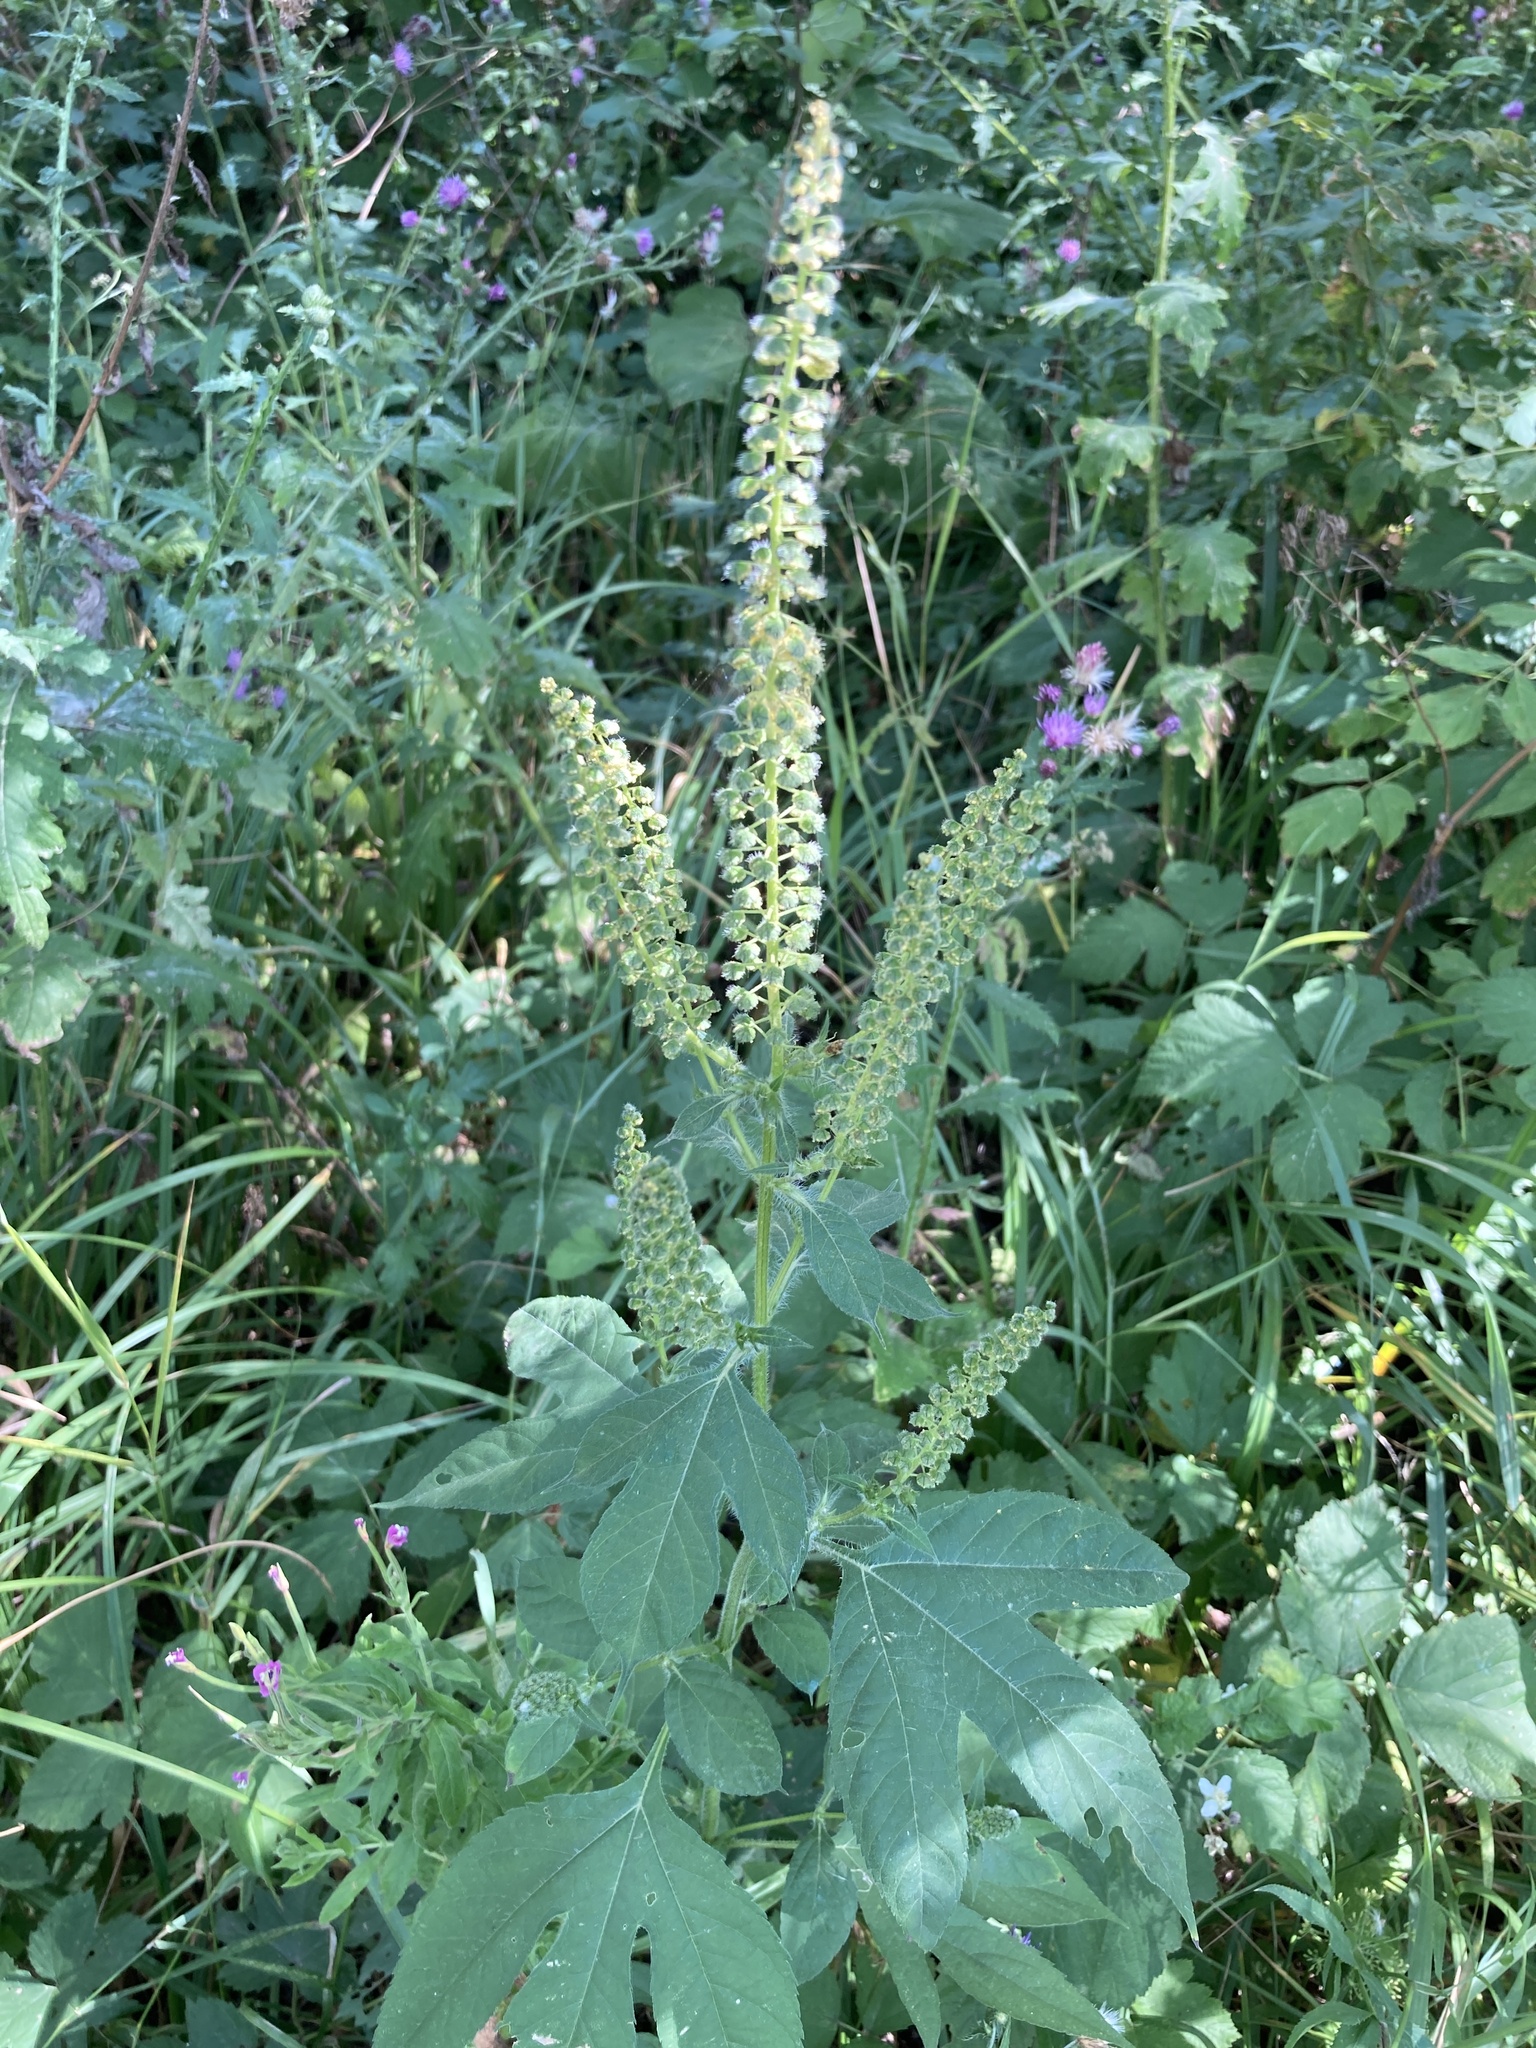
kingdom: Plantae
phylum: Tracheophyta
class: Magnoliopsida
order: Asterales
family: Asteraceae
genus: Ambrosia
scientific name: Ambrosia trifida
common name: Giant ragweed
